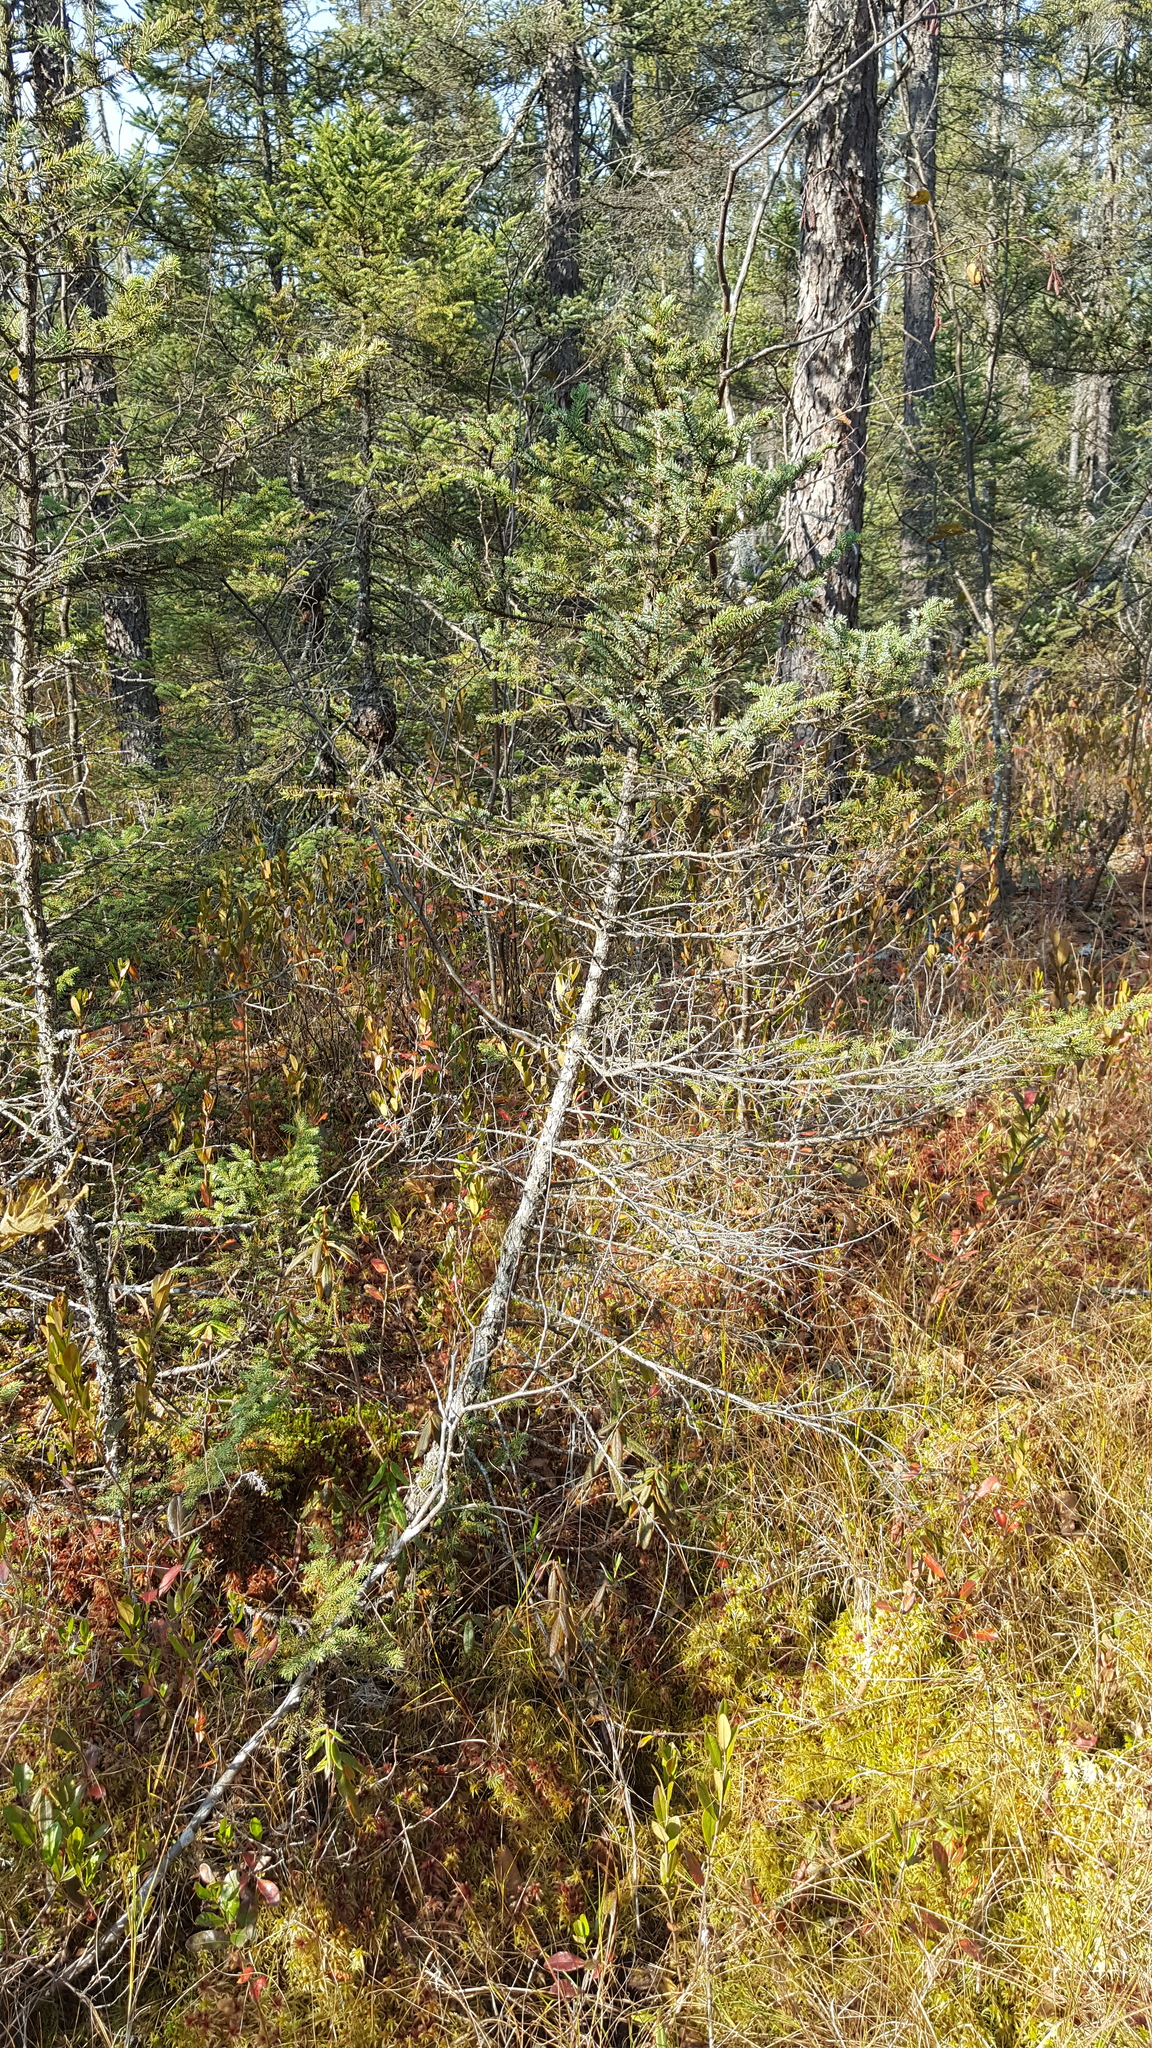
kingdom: Plantae
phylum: Tracheophyta
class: Pinopsida
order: Pinales
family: Pinaceae
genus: Picea
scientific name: Picea mariana
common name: Black spruce
